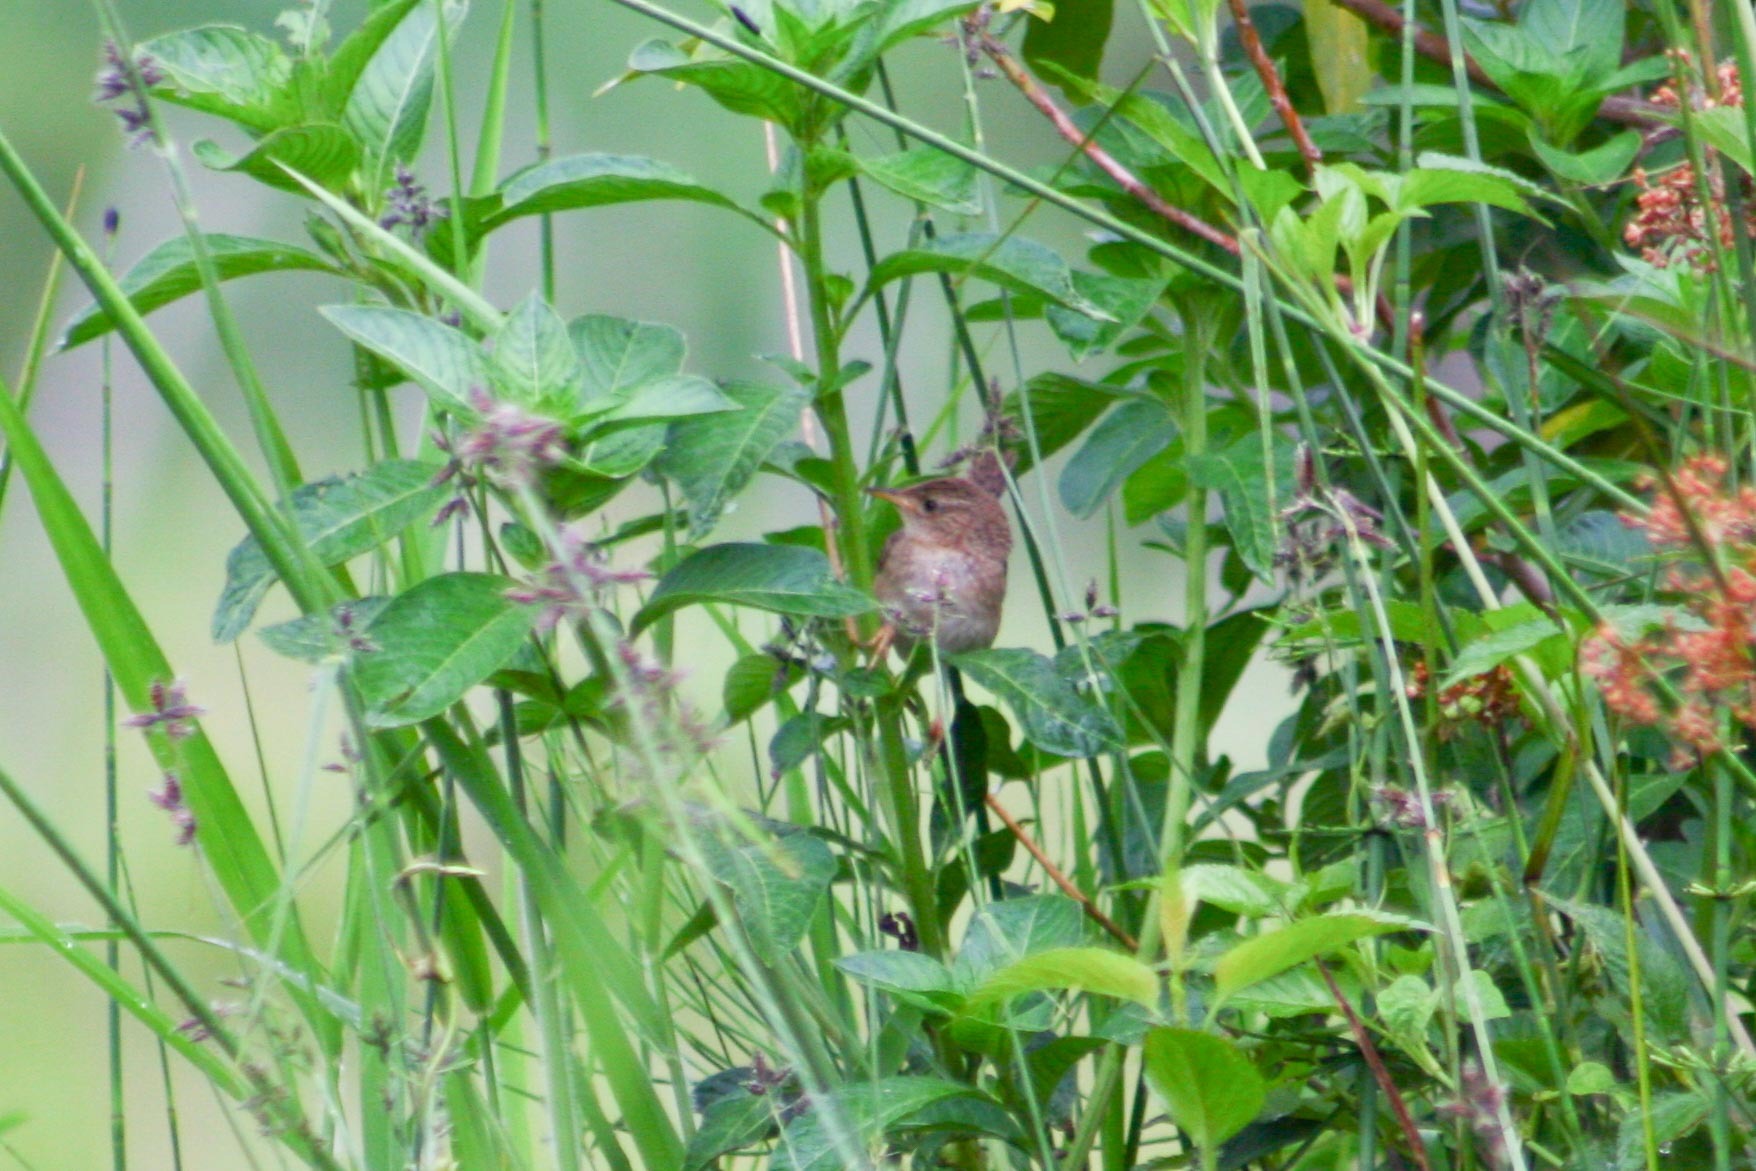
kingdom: Animalia
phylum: Chordata
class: Aves
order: Passeriformes
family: Troglodytidae
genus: Cistothorus
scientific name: Cistothorus platensis
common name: Sedge wren
